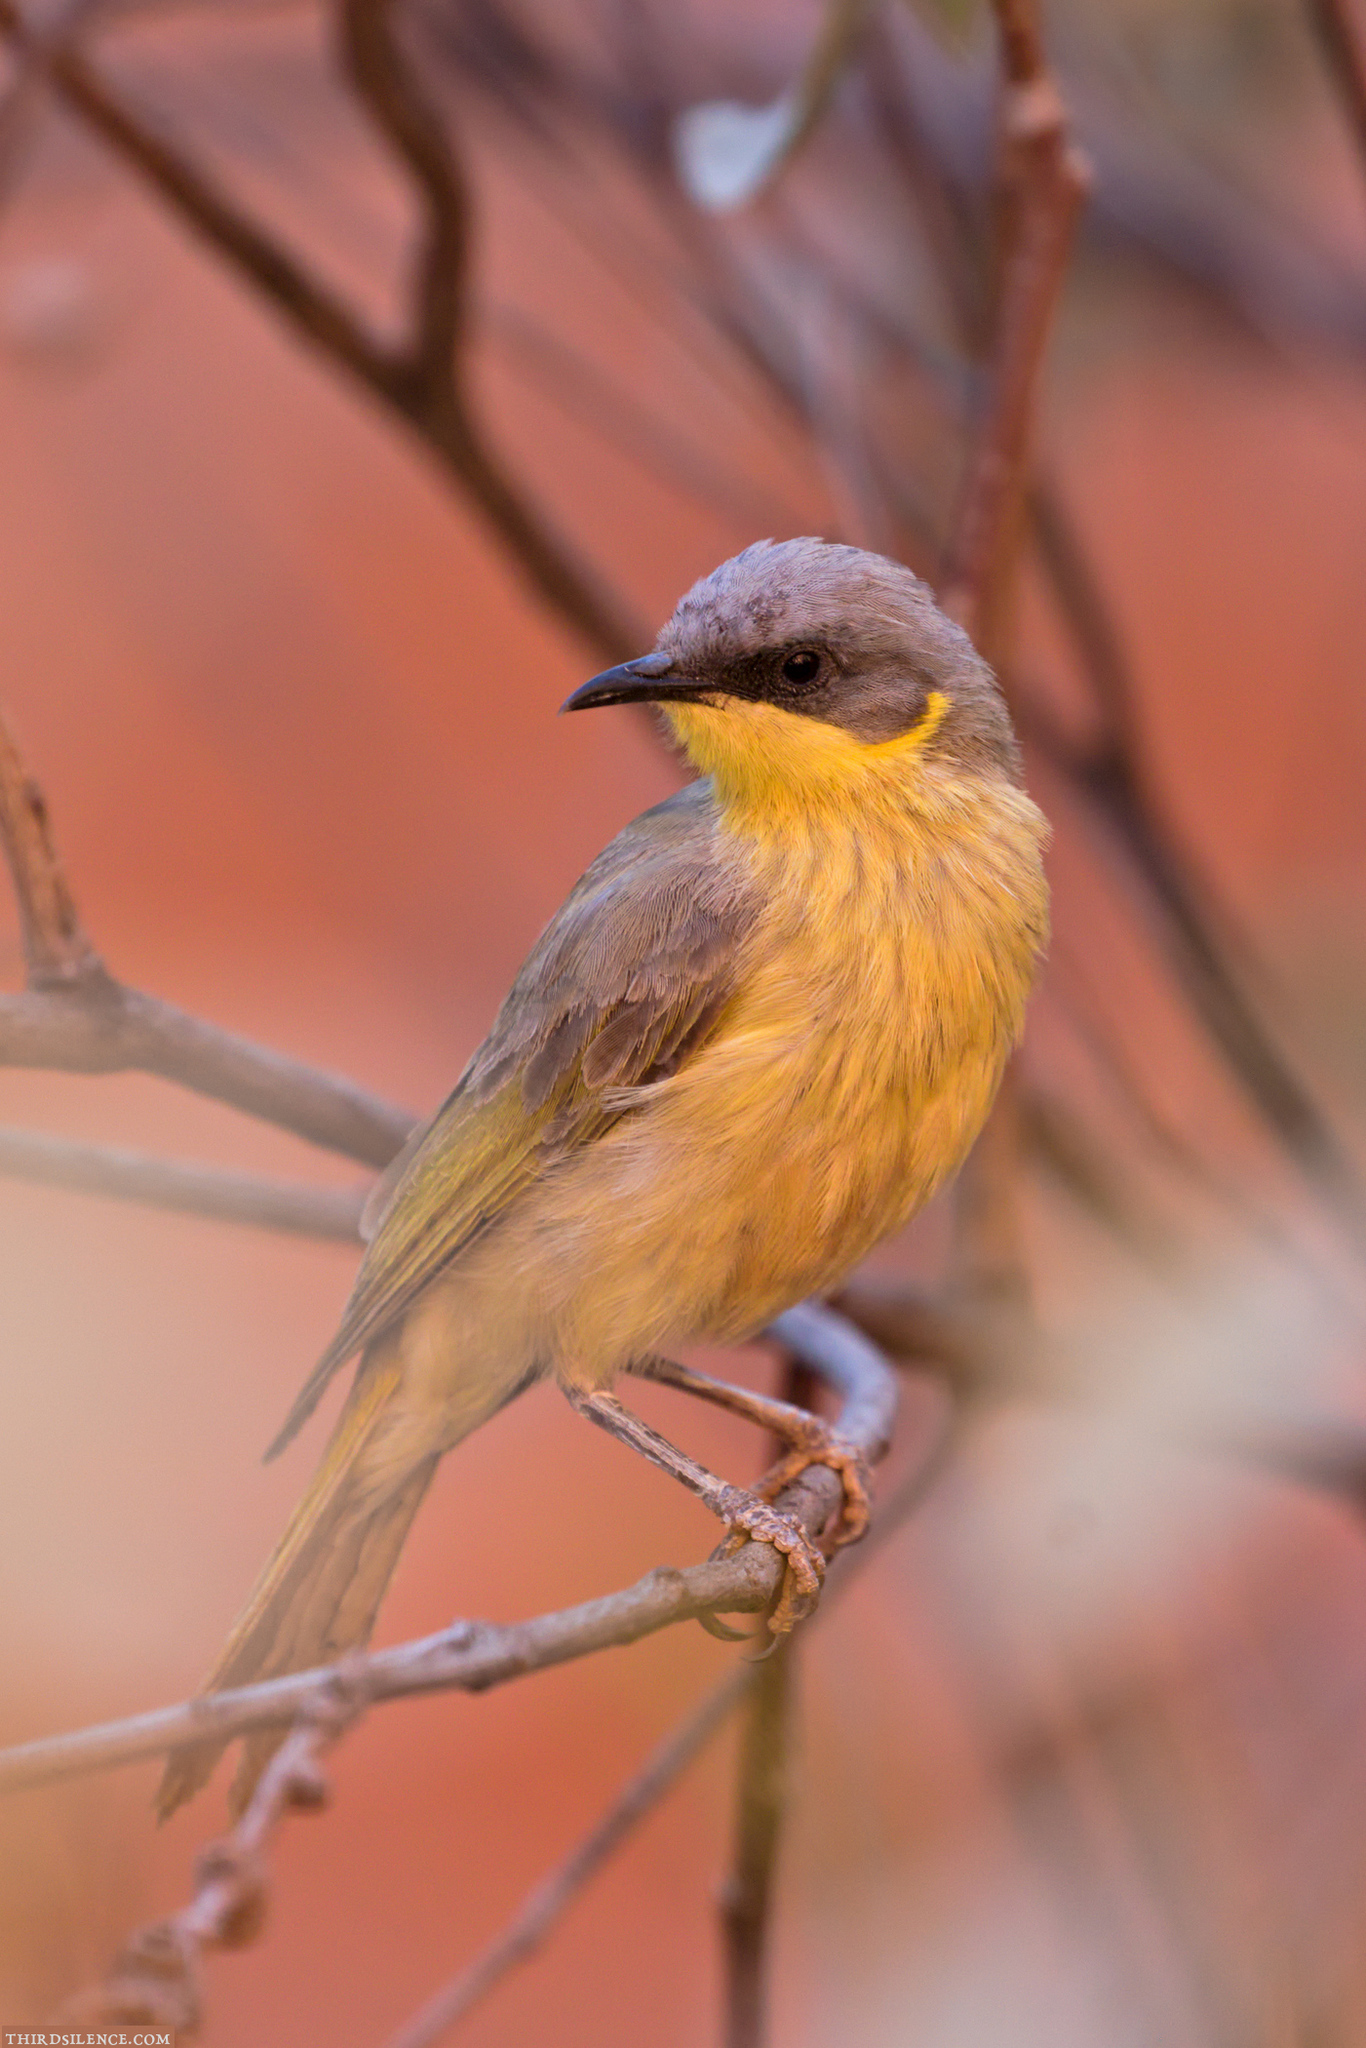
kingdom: Animalia
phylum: Chordata
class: Aves
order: Passeriformes
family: Meliphagidae
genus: Ptilotula
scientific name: Ptilotula keartlandi
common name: Grey-headed honeyeater
